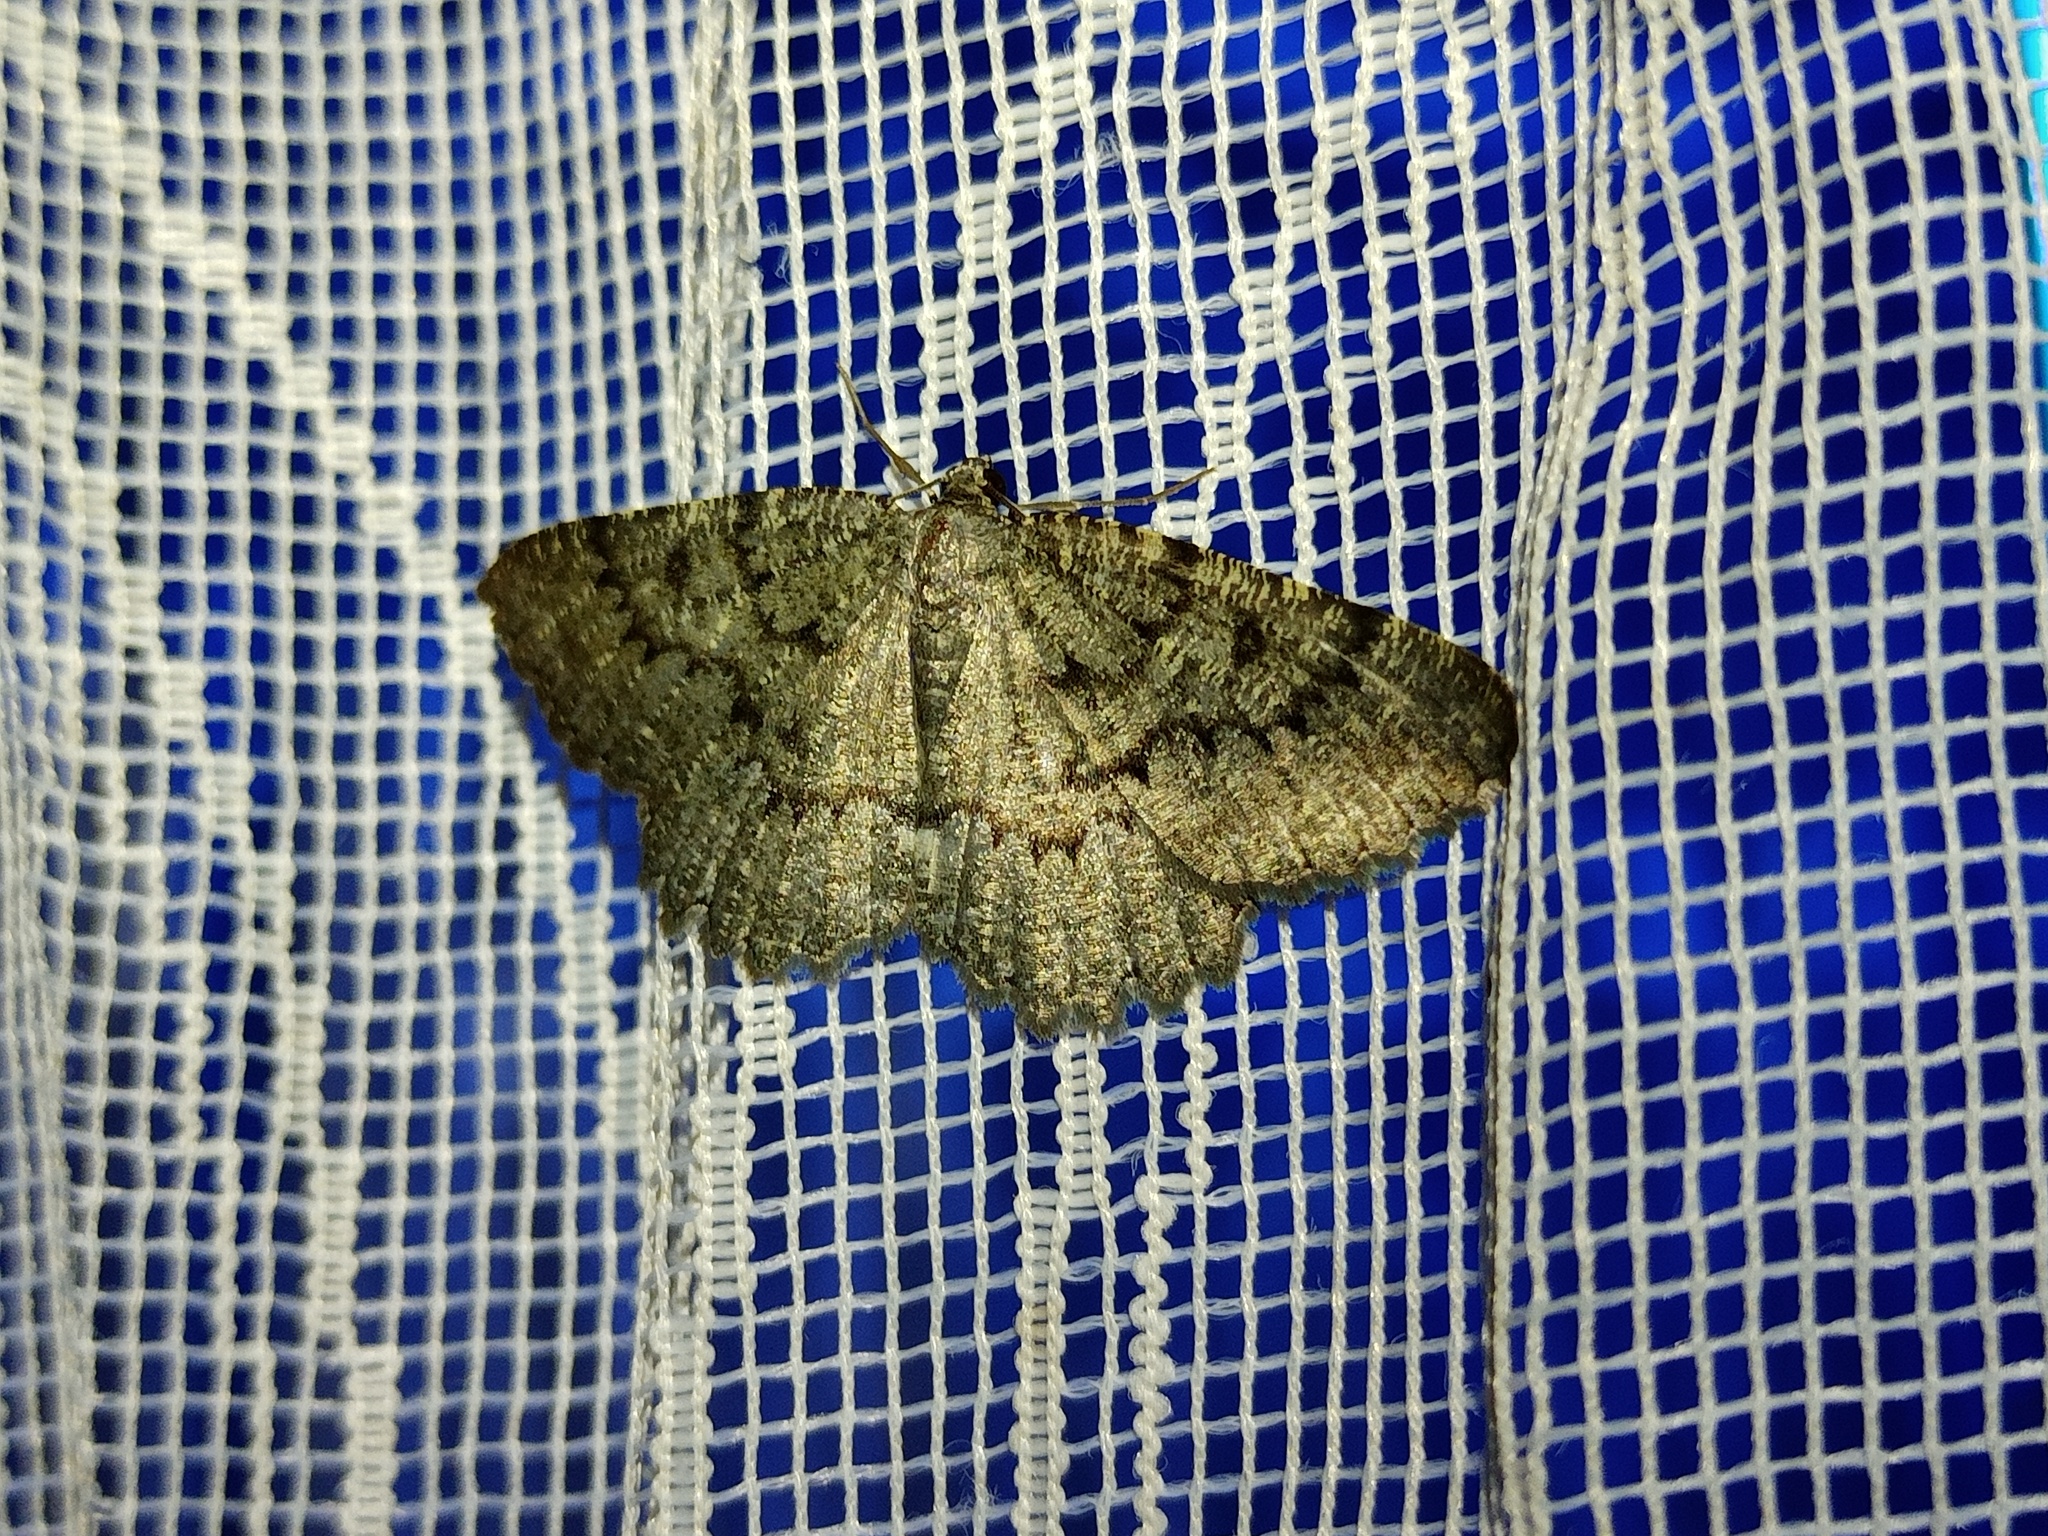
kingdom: Animalia
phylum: Arthropoda
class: Insecta
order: Lepidoptera
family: Geometridae
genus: Charissa
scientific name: Charissa obscurata
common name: Annulet
